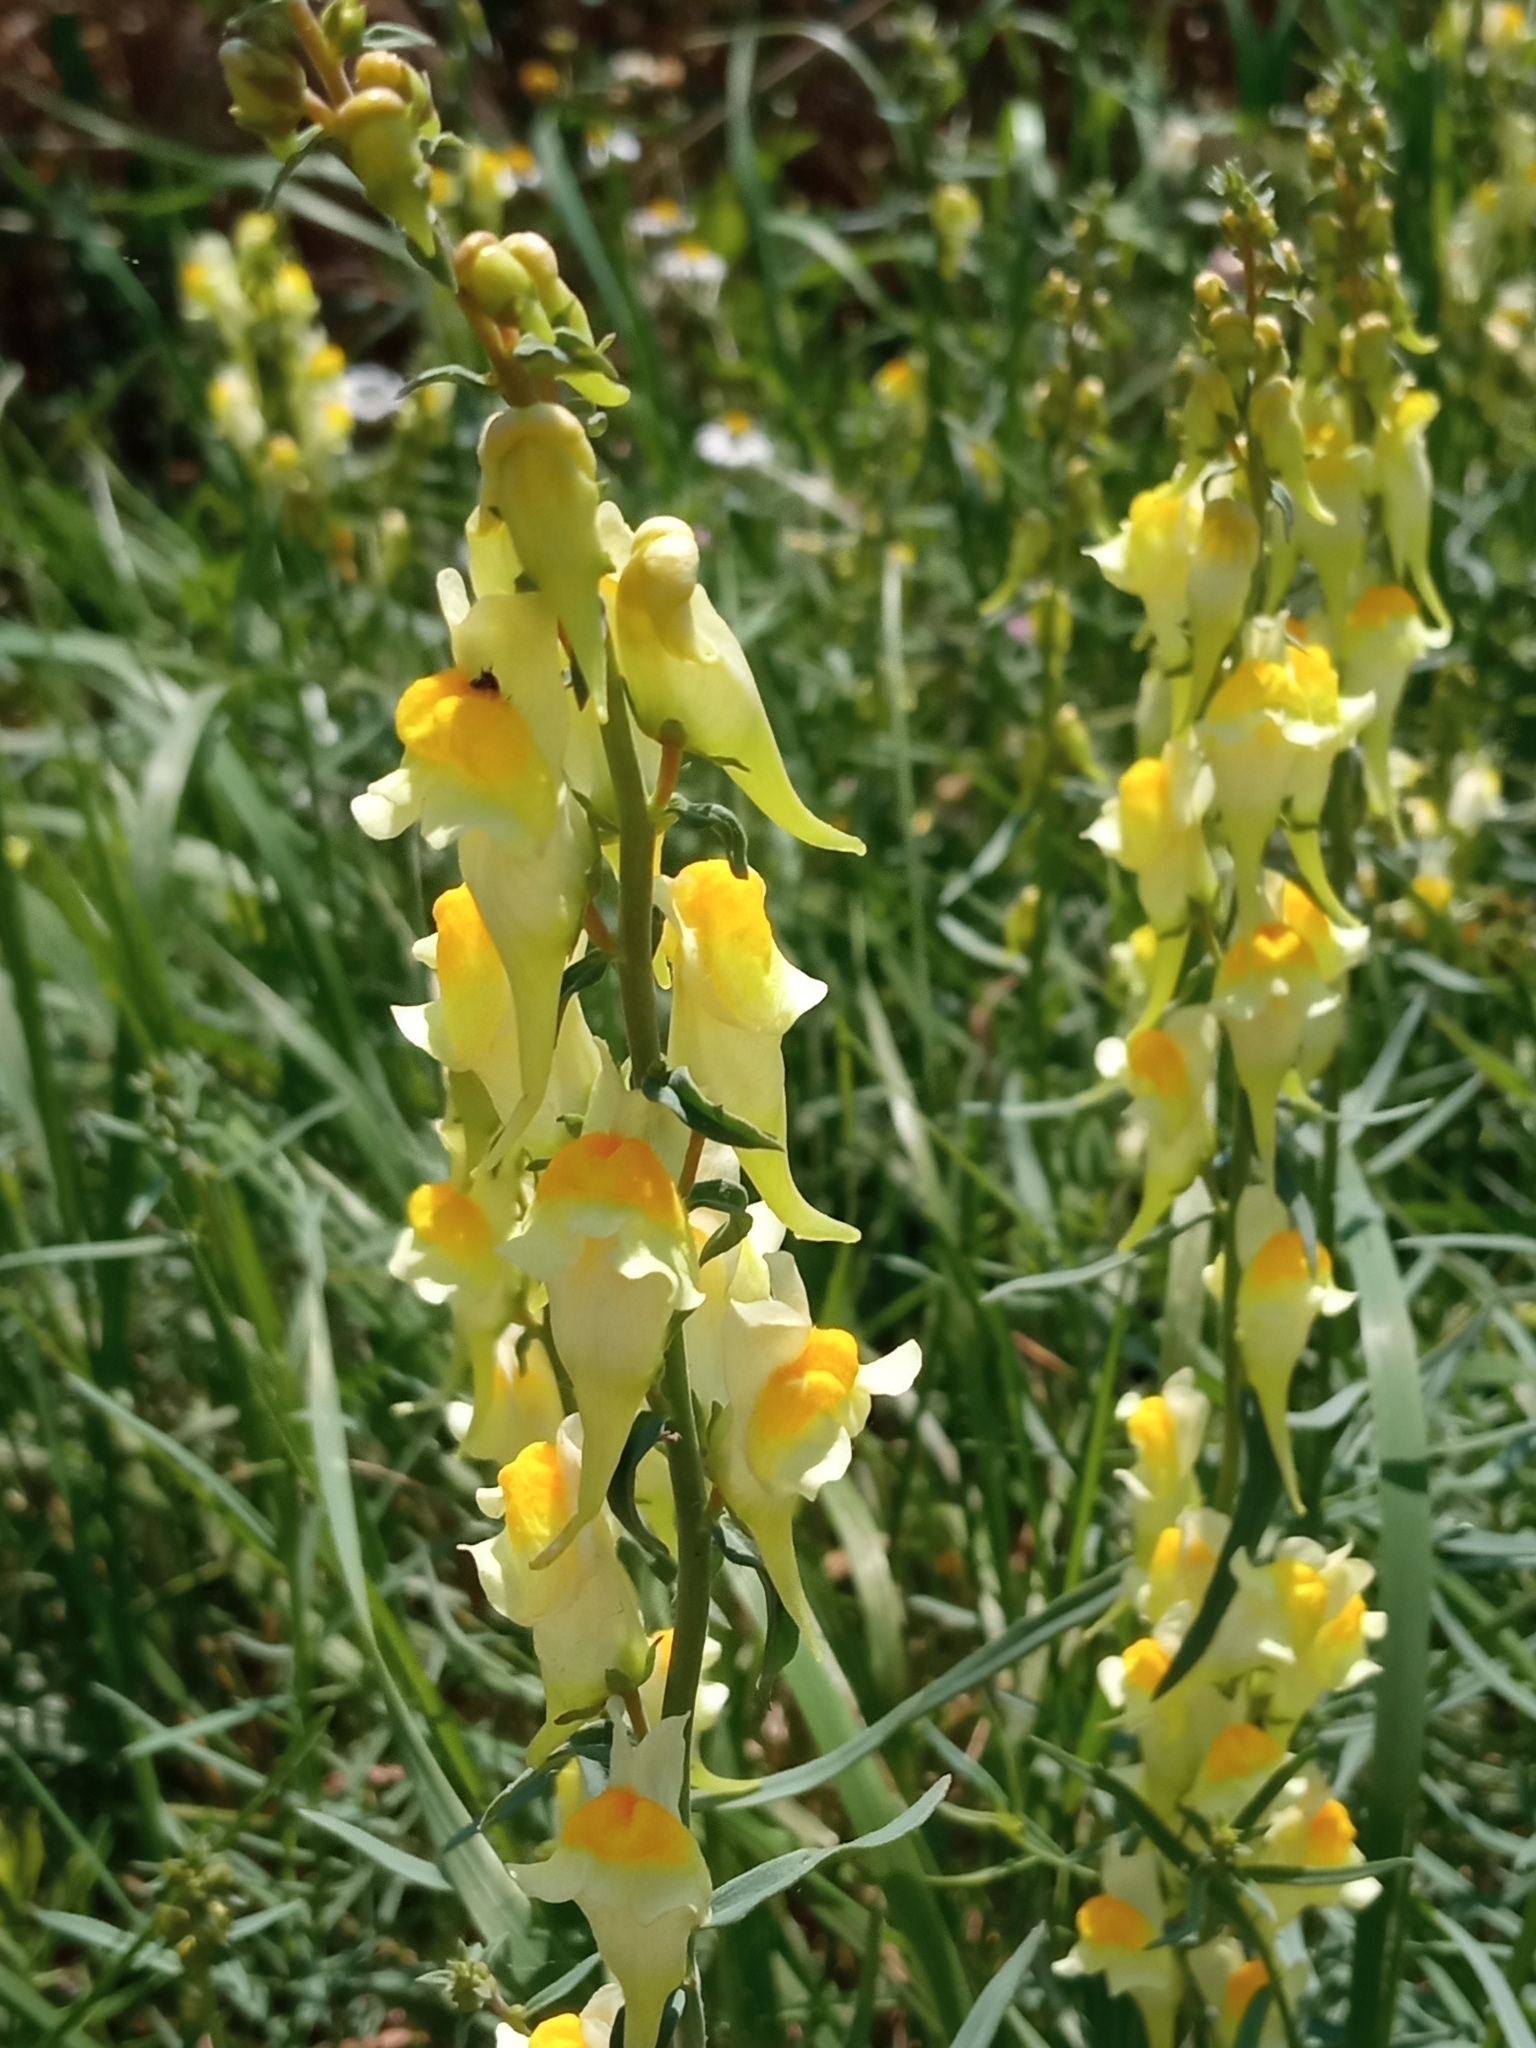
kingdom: Plantae
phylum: Tracheophyta
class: Magnoliopsida
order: Lamiales
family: Plantaginaceae
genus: Linaria
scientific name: Linaria vulgaris
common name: Butter and eggs
